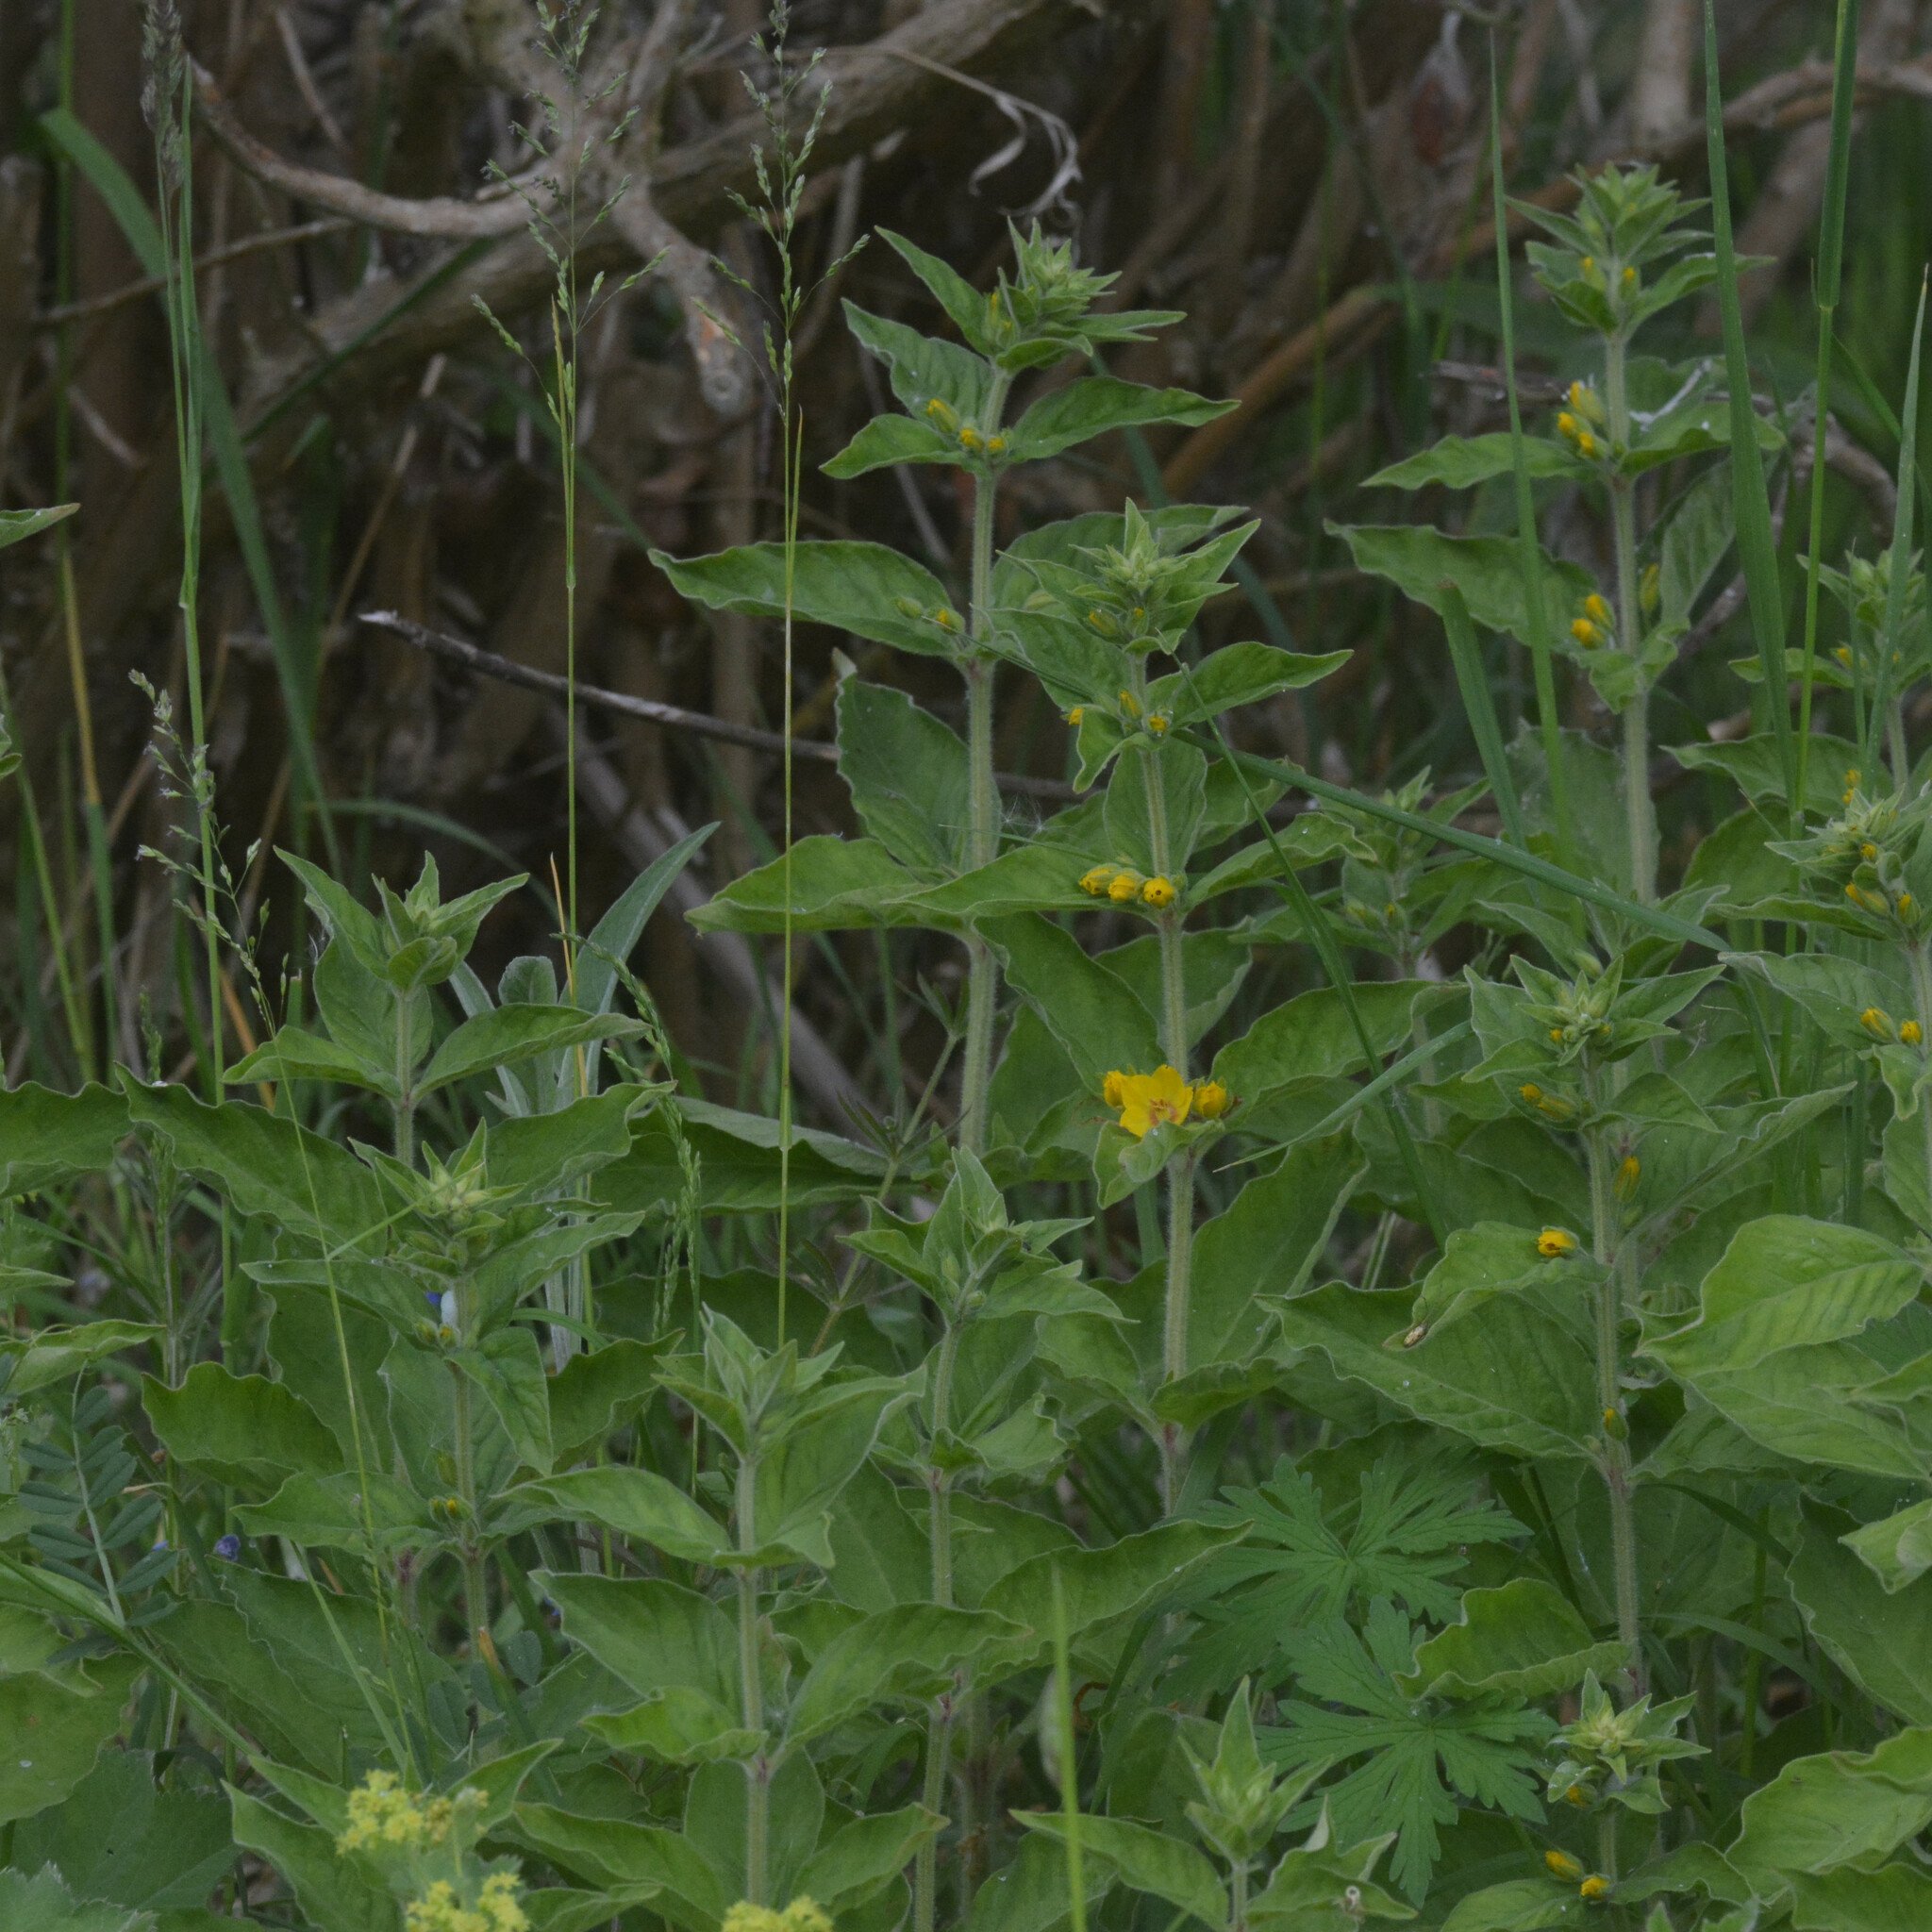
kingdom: Plantae
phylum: Tracheophyta
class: Magnoliopsida
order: Ericales
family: Primulaceae
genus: Lysimachia
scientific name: Lysimachia punctata
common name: Dotted loosestrife
